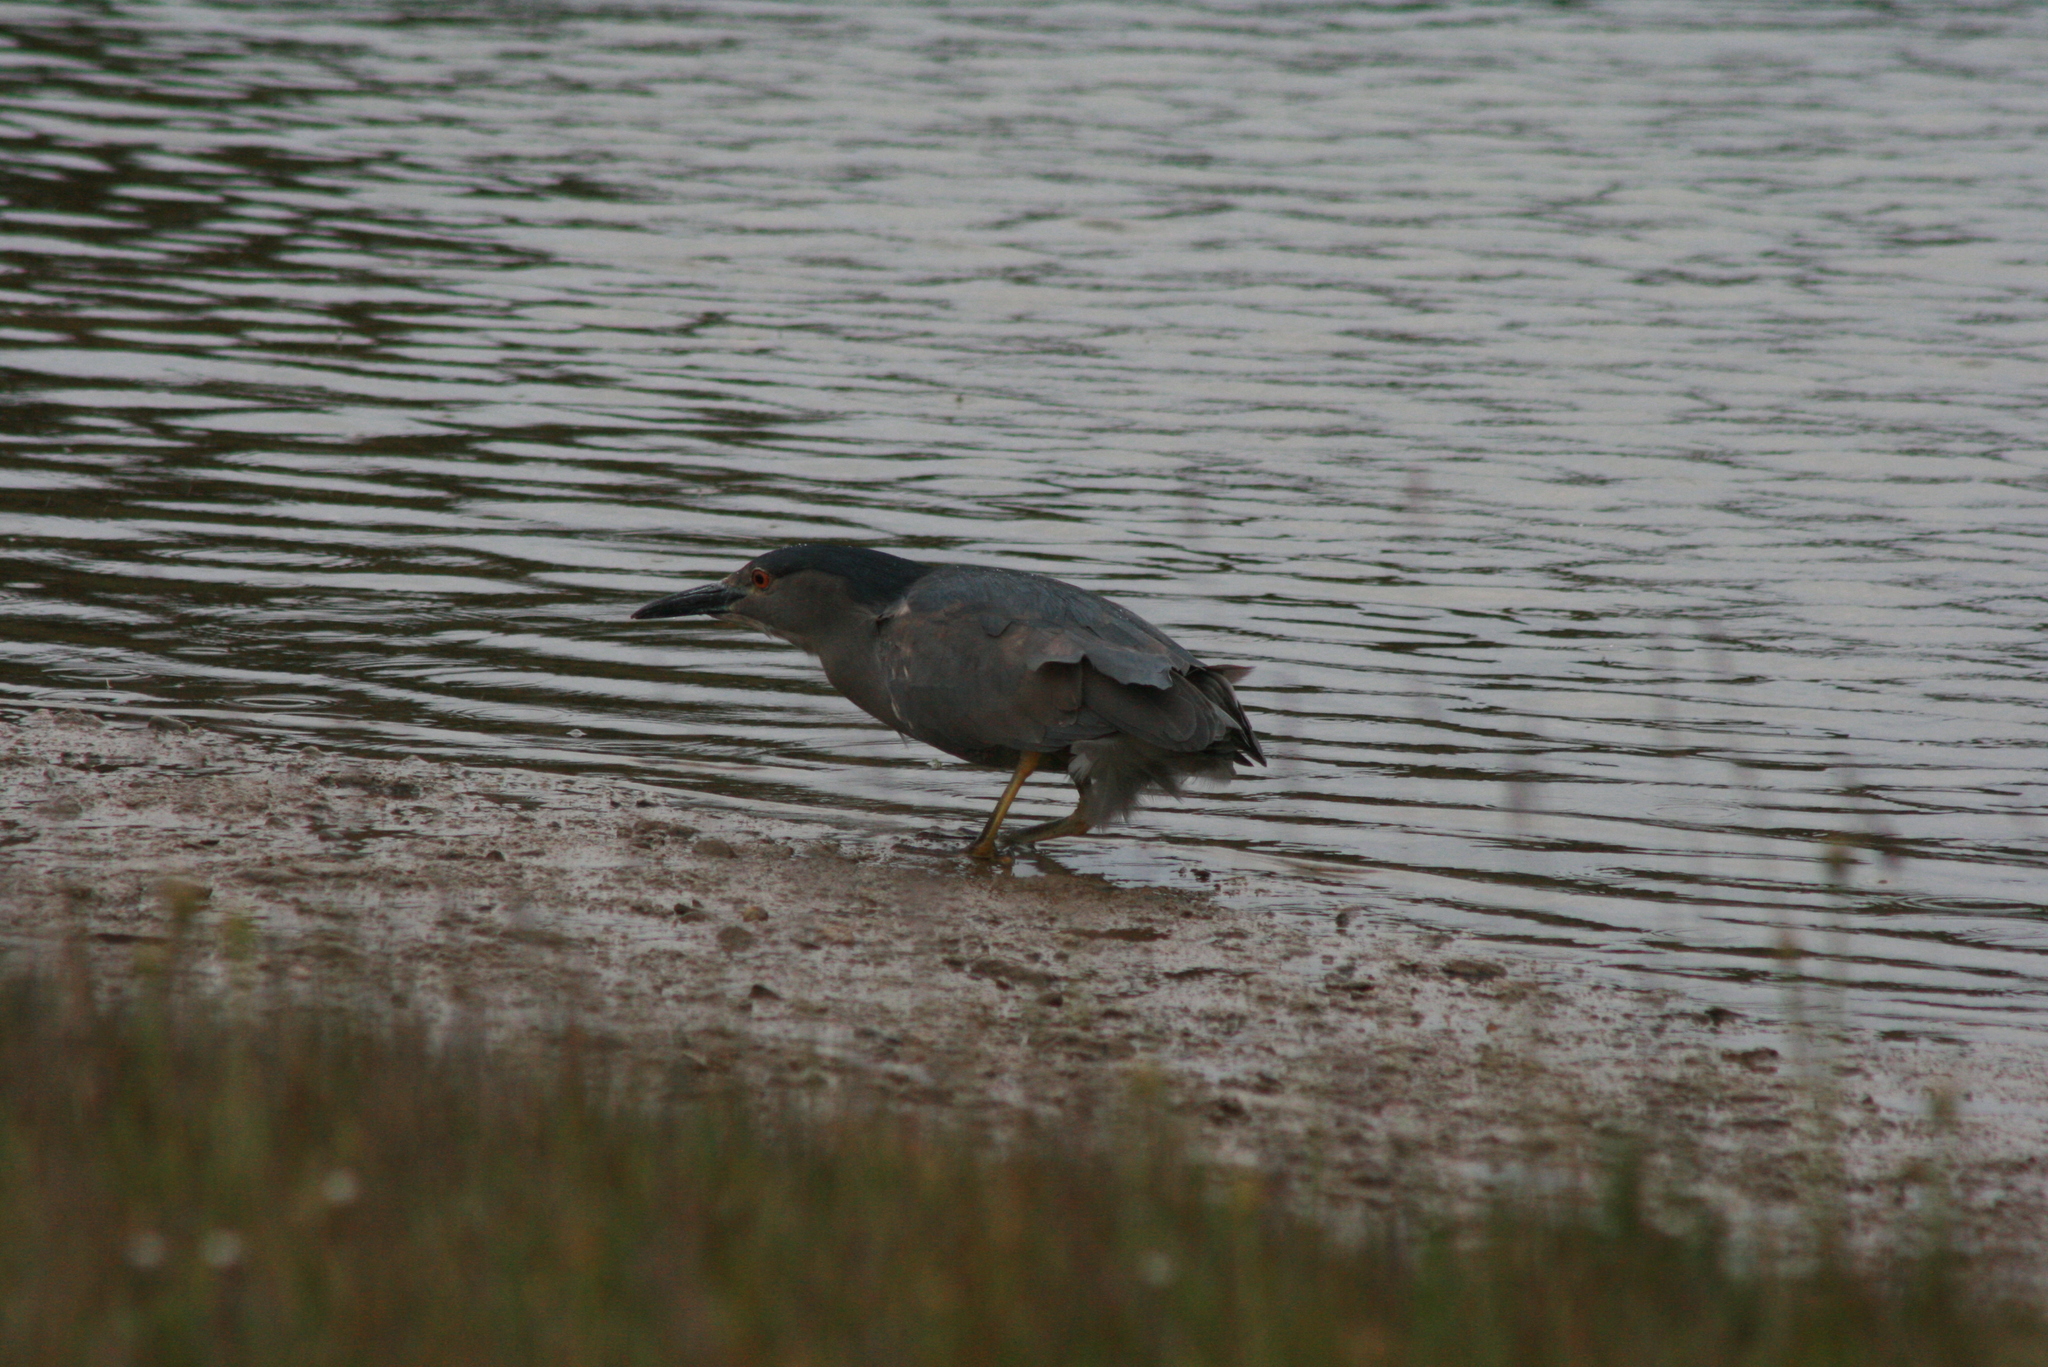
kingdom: Animalia
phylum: Chordata
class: Aves
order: Pelecaniformes
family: Ardeidae
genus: Nycticorax
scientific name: Nycticorax nycticorax
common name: Black-crowned night heron
